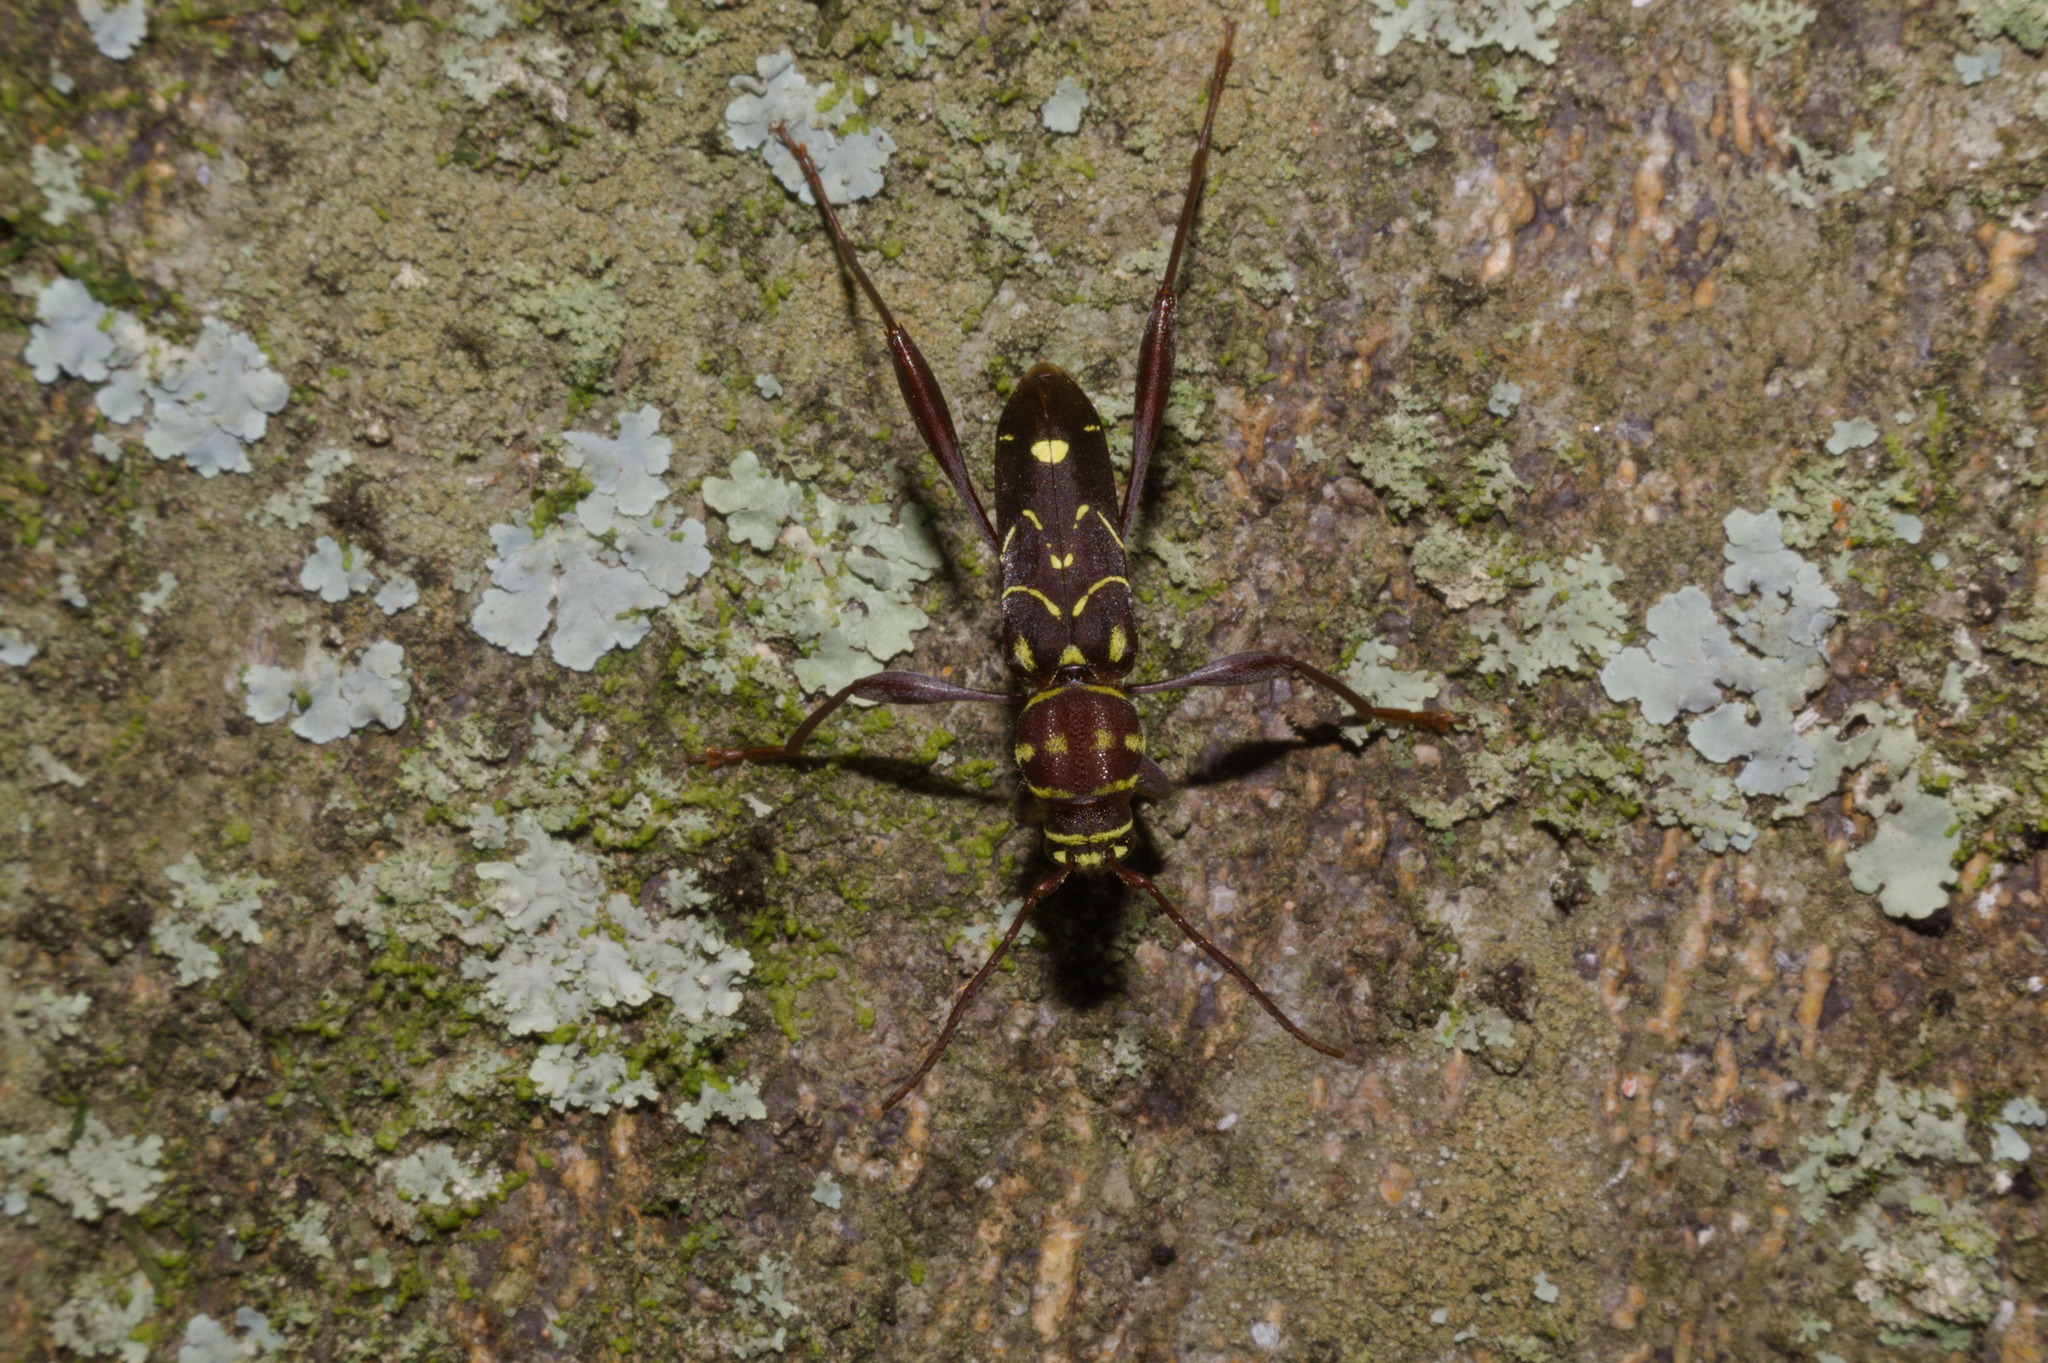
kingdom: Animalia
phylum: Arthropoda
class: Insecta
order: Coleoptera
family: Cerambycidae
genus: Cotyclytus
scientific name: Cotyclytus curvatus
